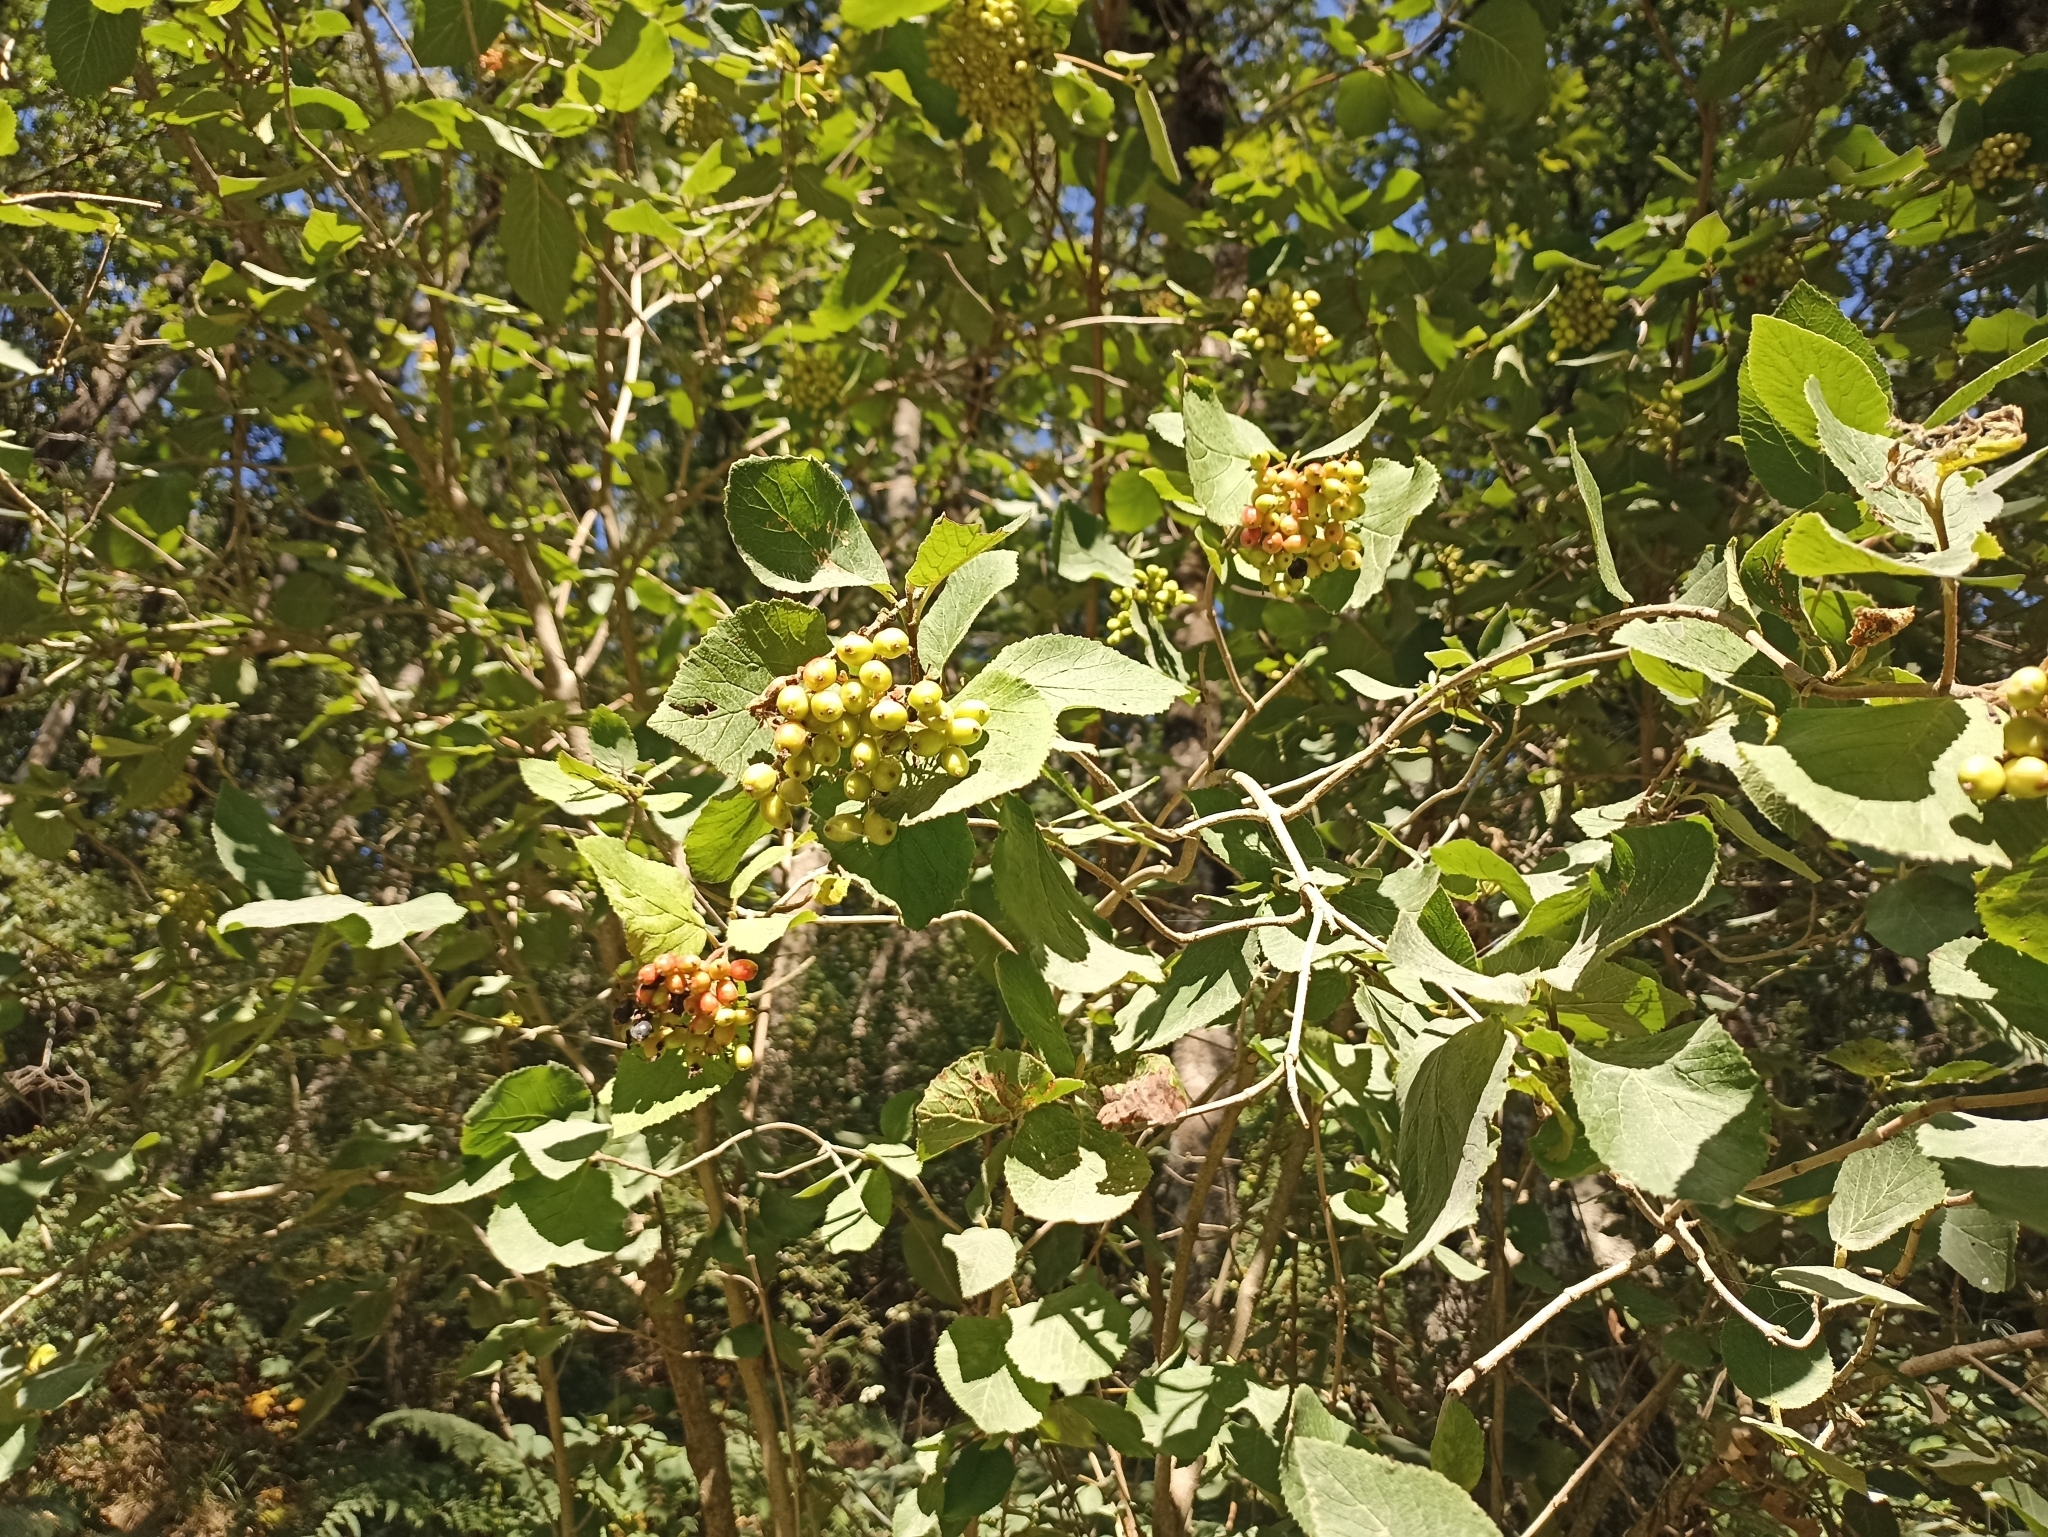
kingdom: Plantae
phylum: Tracheophyta
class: Magnoliopsida
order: Dipsacales
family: Viburnaceae
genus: Viburnum
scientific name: Viburnum lantana
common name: Wayfaring tree
